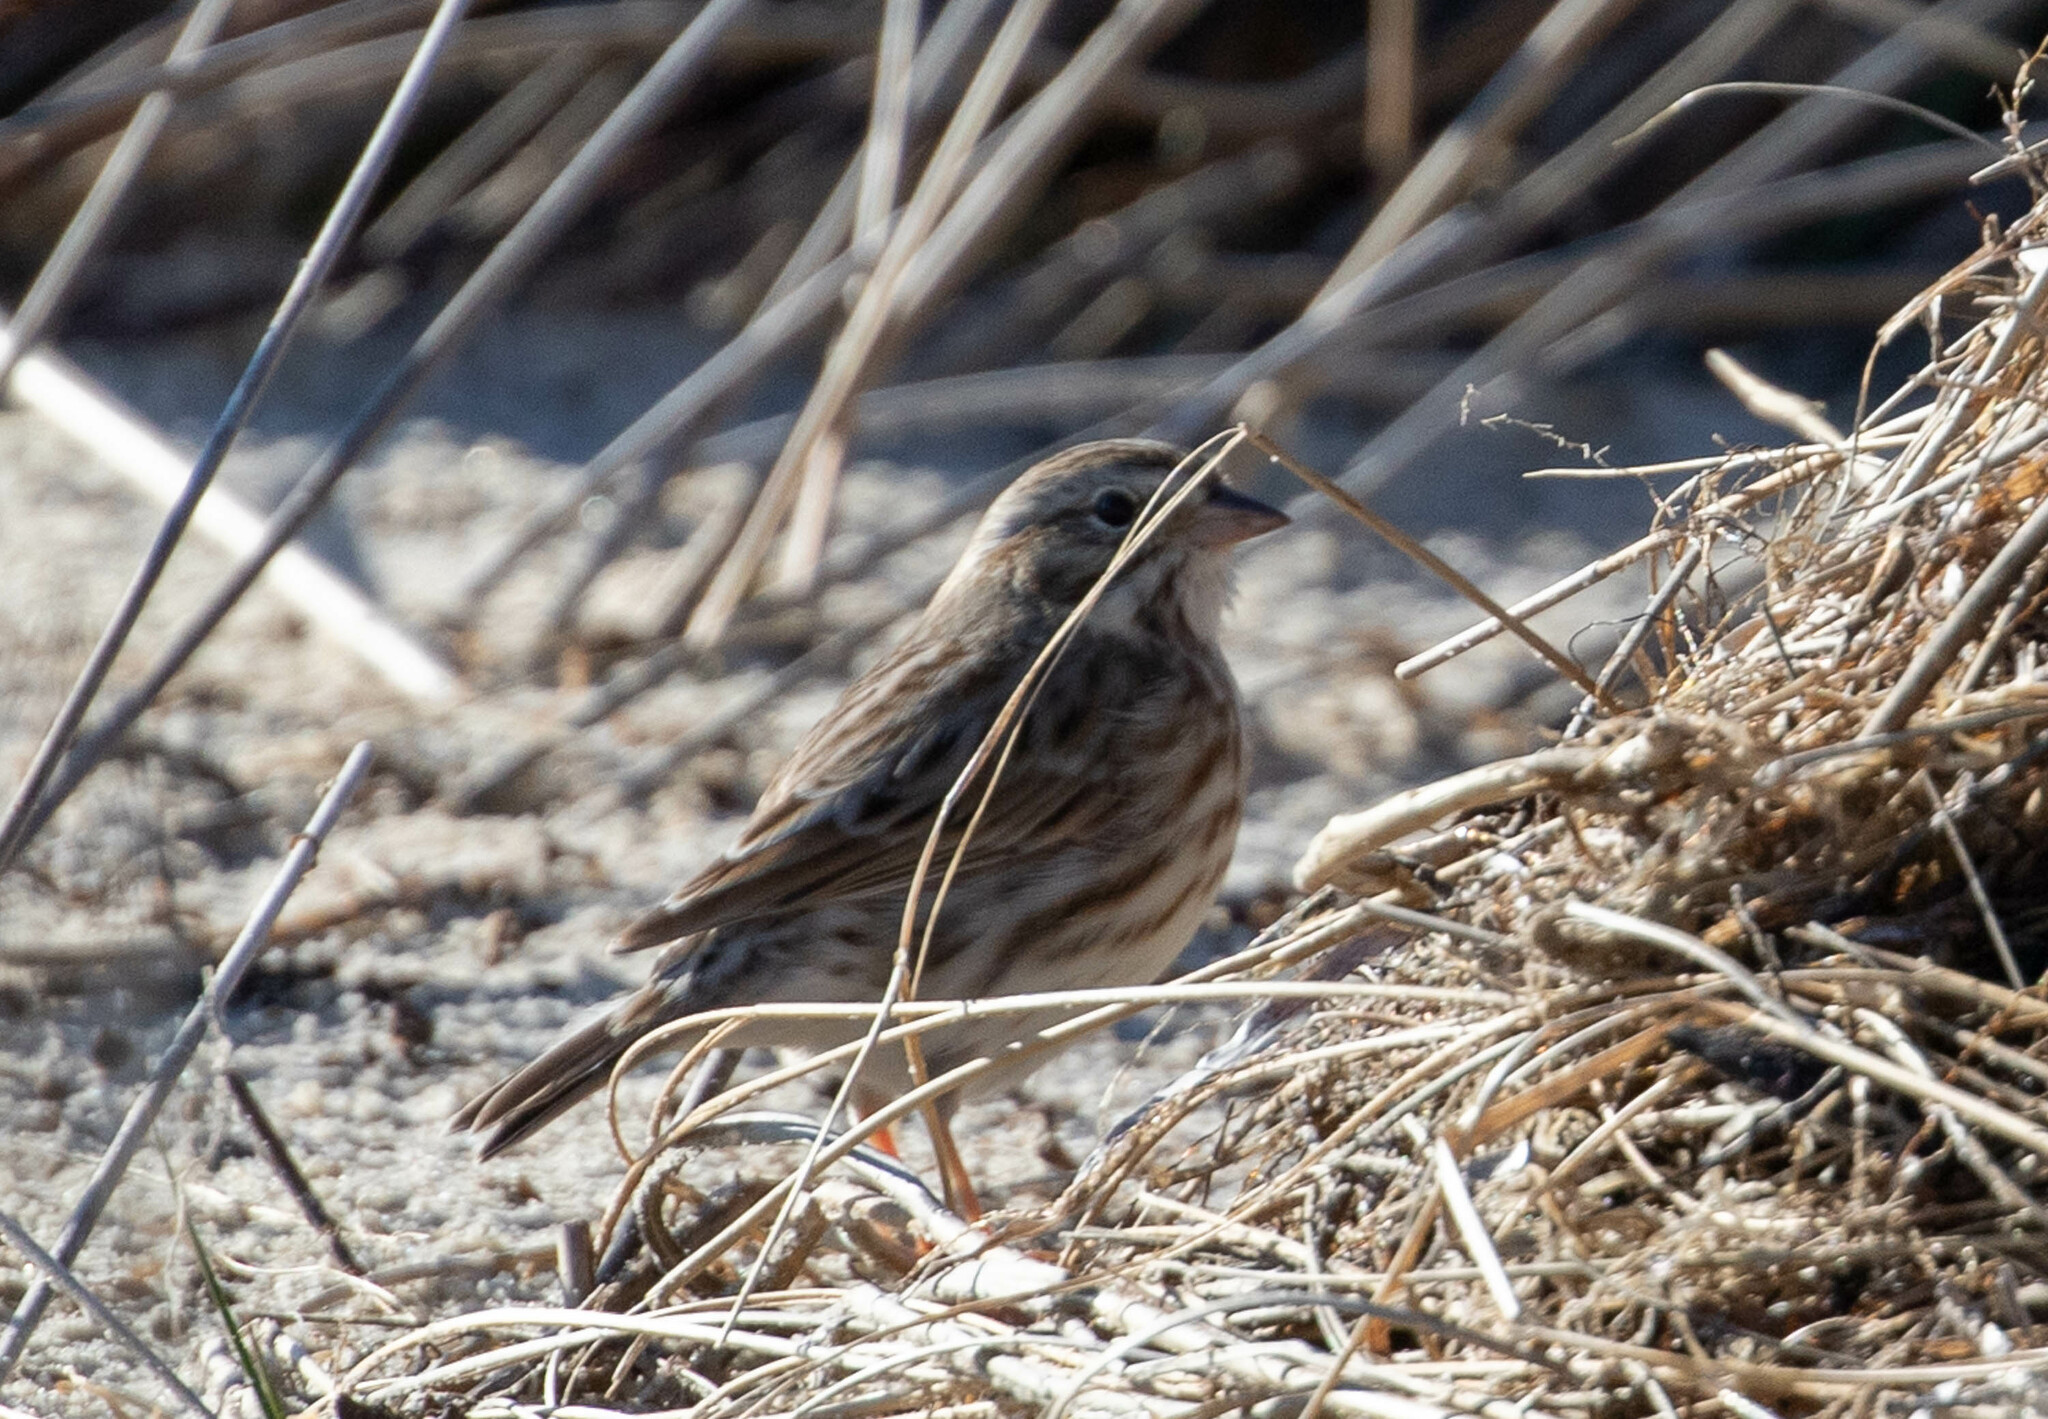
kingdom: Animalia
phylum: Chordata
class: Aves
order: Passeriformes
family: Passerellidae
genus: Passerculus
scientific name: Passerculus sandwichensis
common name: Savannah sparrow
